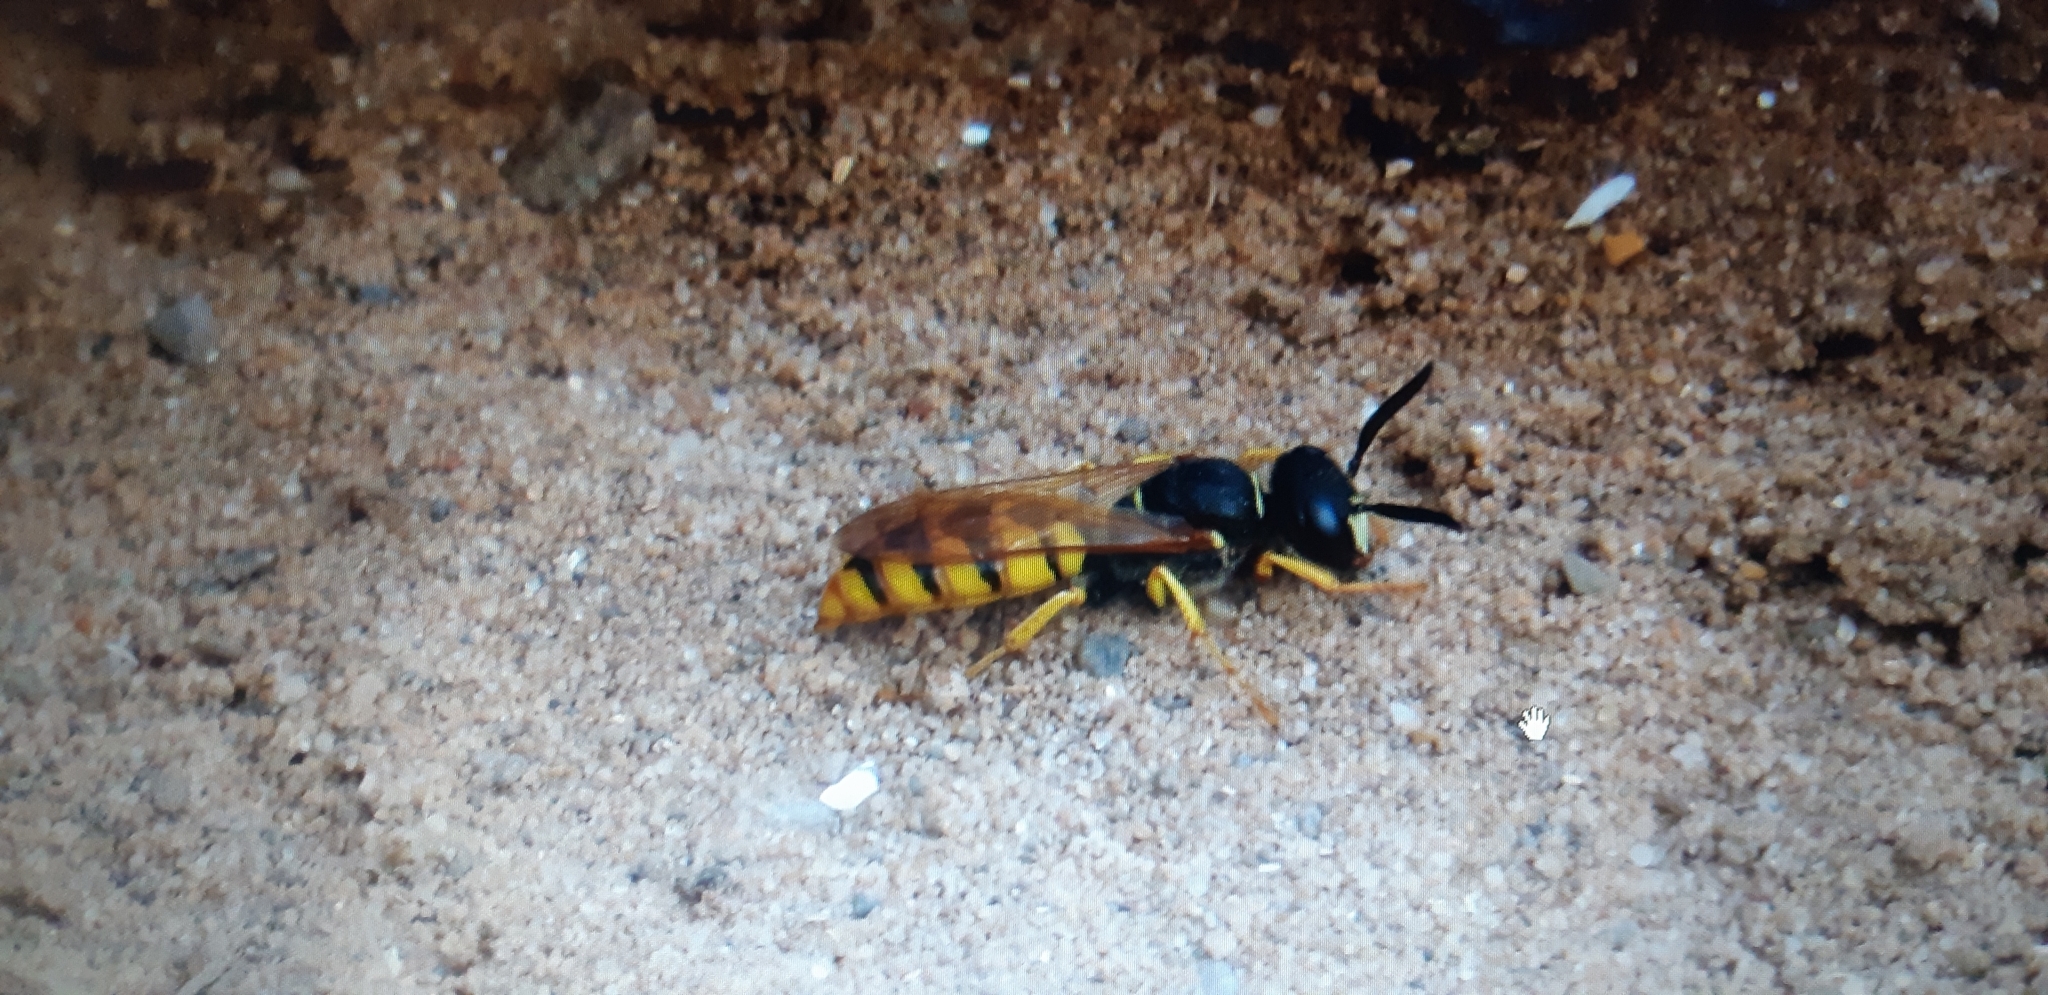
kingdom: Animalia
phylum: Arthropoda
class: Insecta
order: Hymenoptera
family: Crabronidae
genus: Philanthus
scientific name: Philanthus triangulum
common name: Bee wolf
